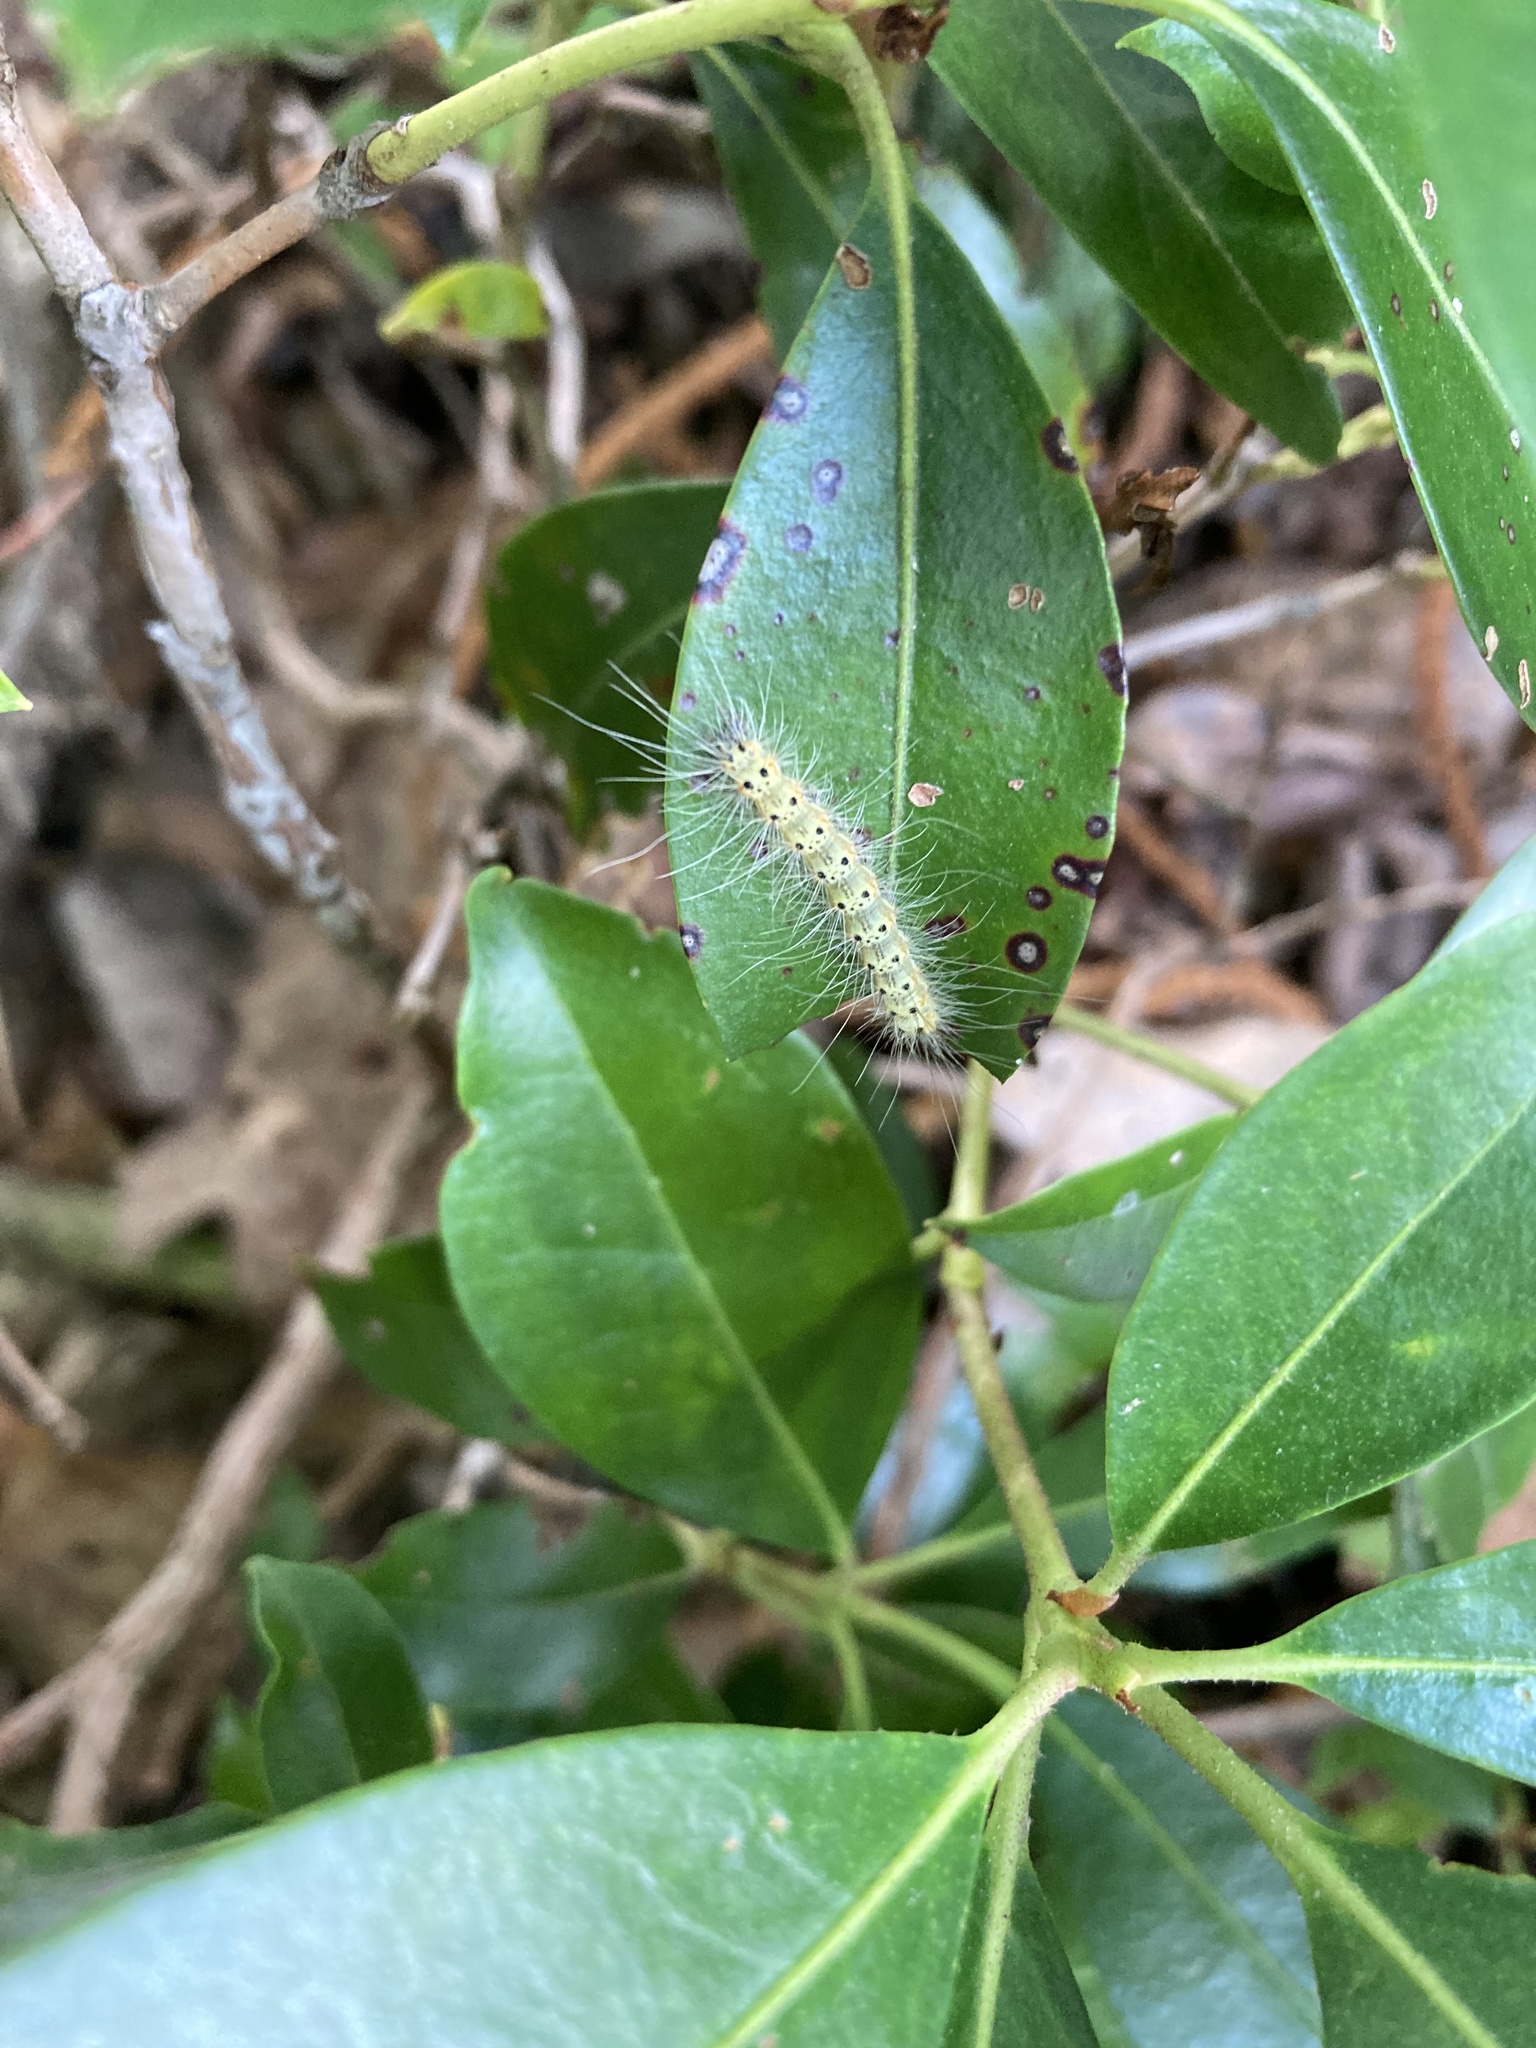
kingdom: Animalia
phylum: Arthropoda
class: Insecta
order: Lepidoptera
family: Erebidae
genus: Hyphantria
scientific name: Hyphantria cunea
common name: American white moth
